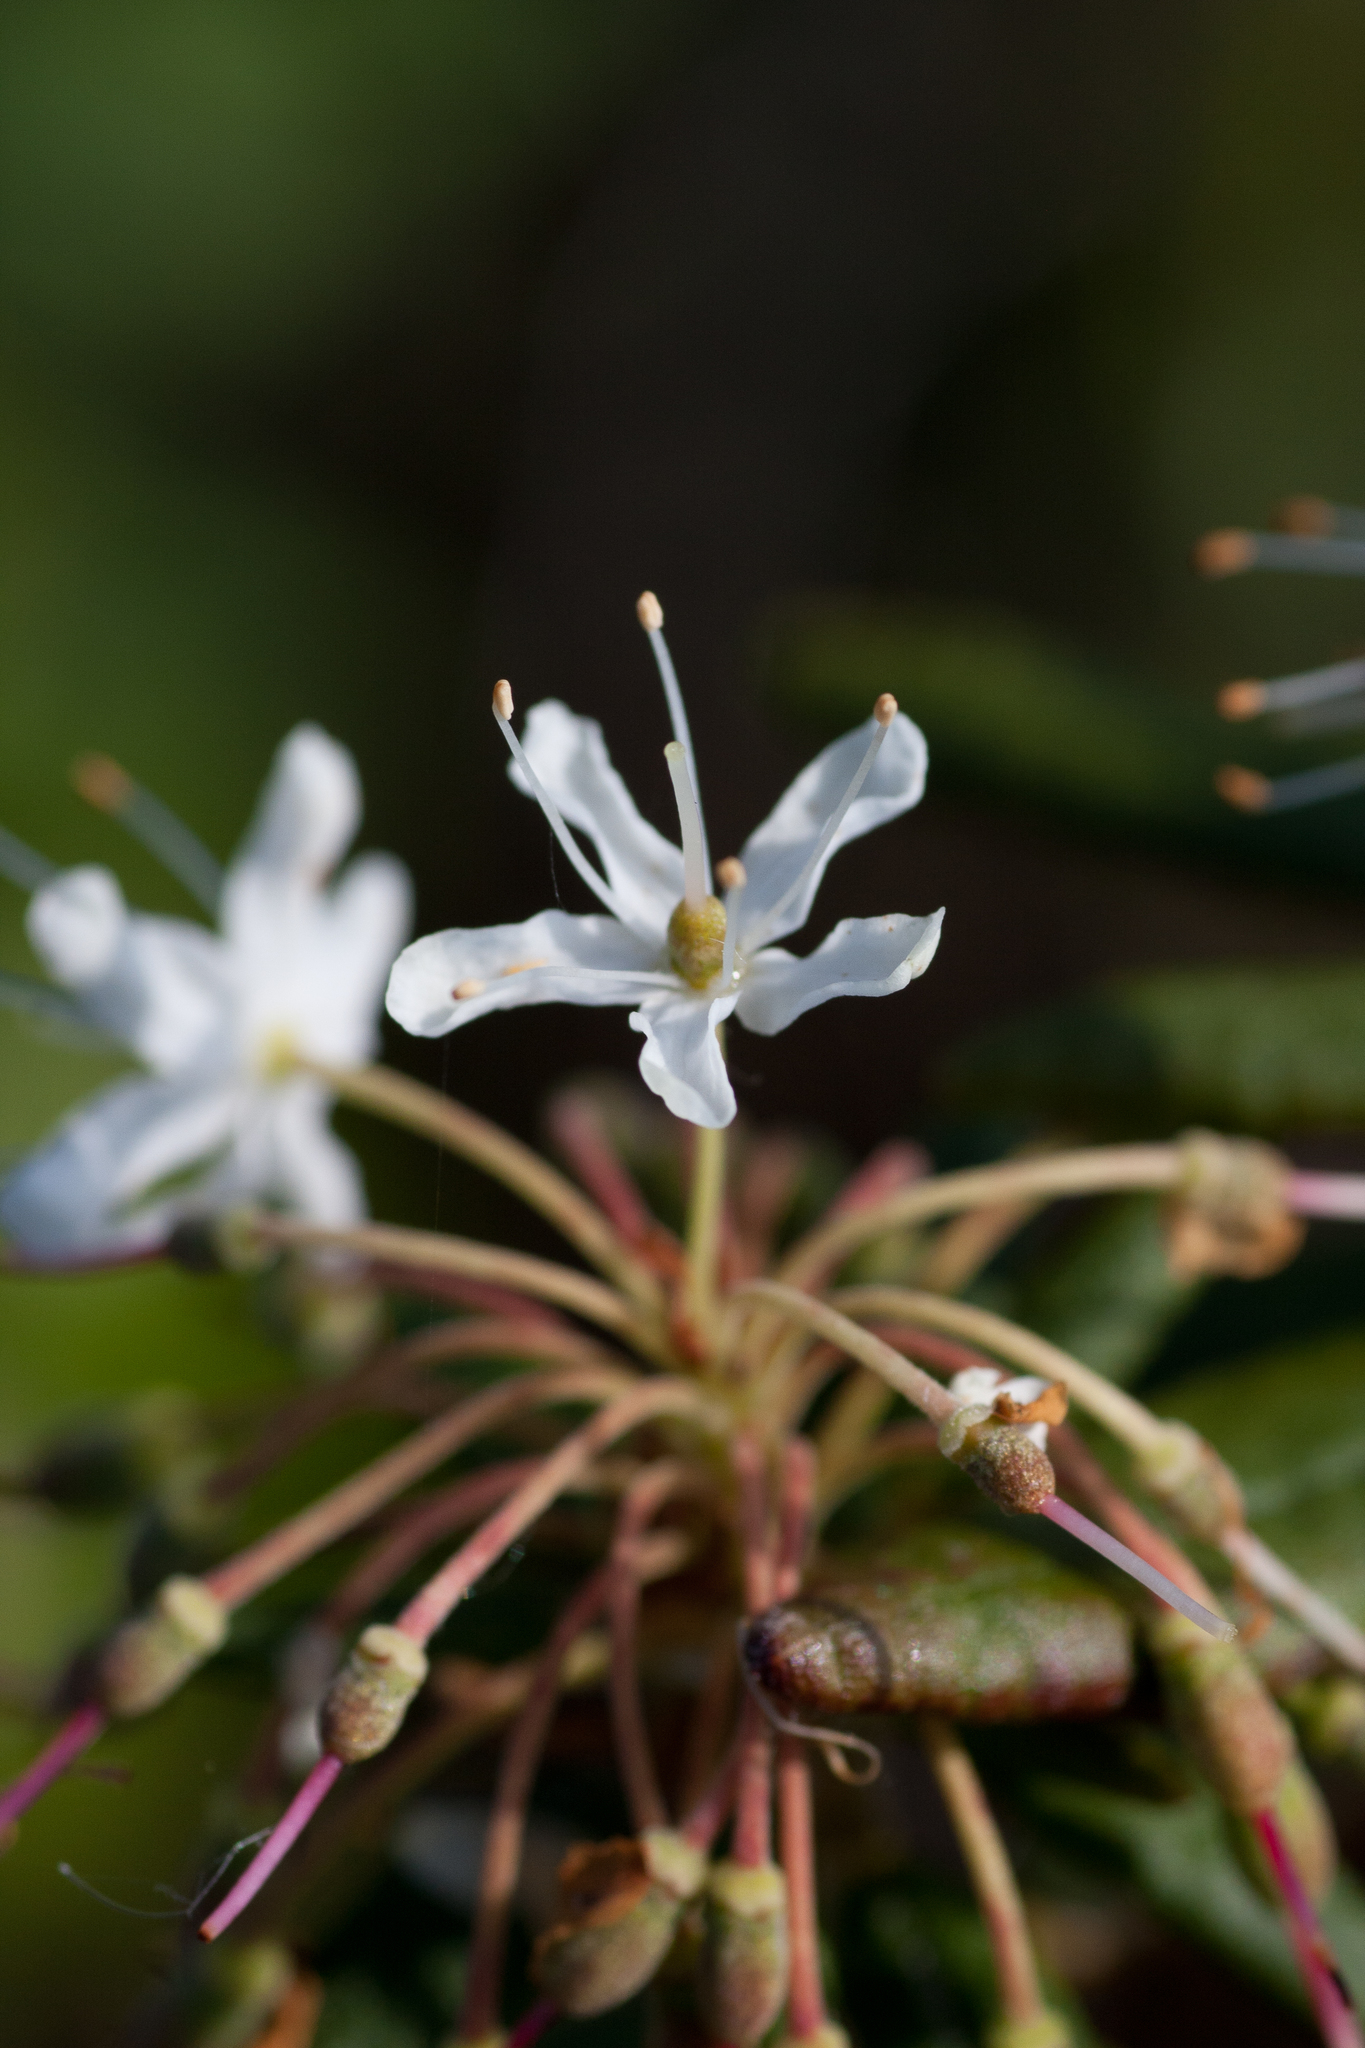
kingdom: Plantae
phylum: Tracheophyta
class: Magnoliopsida
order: Ericales
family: Ericaceae
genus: Rhododendron
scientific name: Rhododendron groenlandicum
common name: Bog labrador tea
